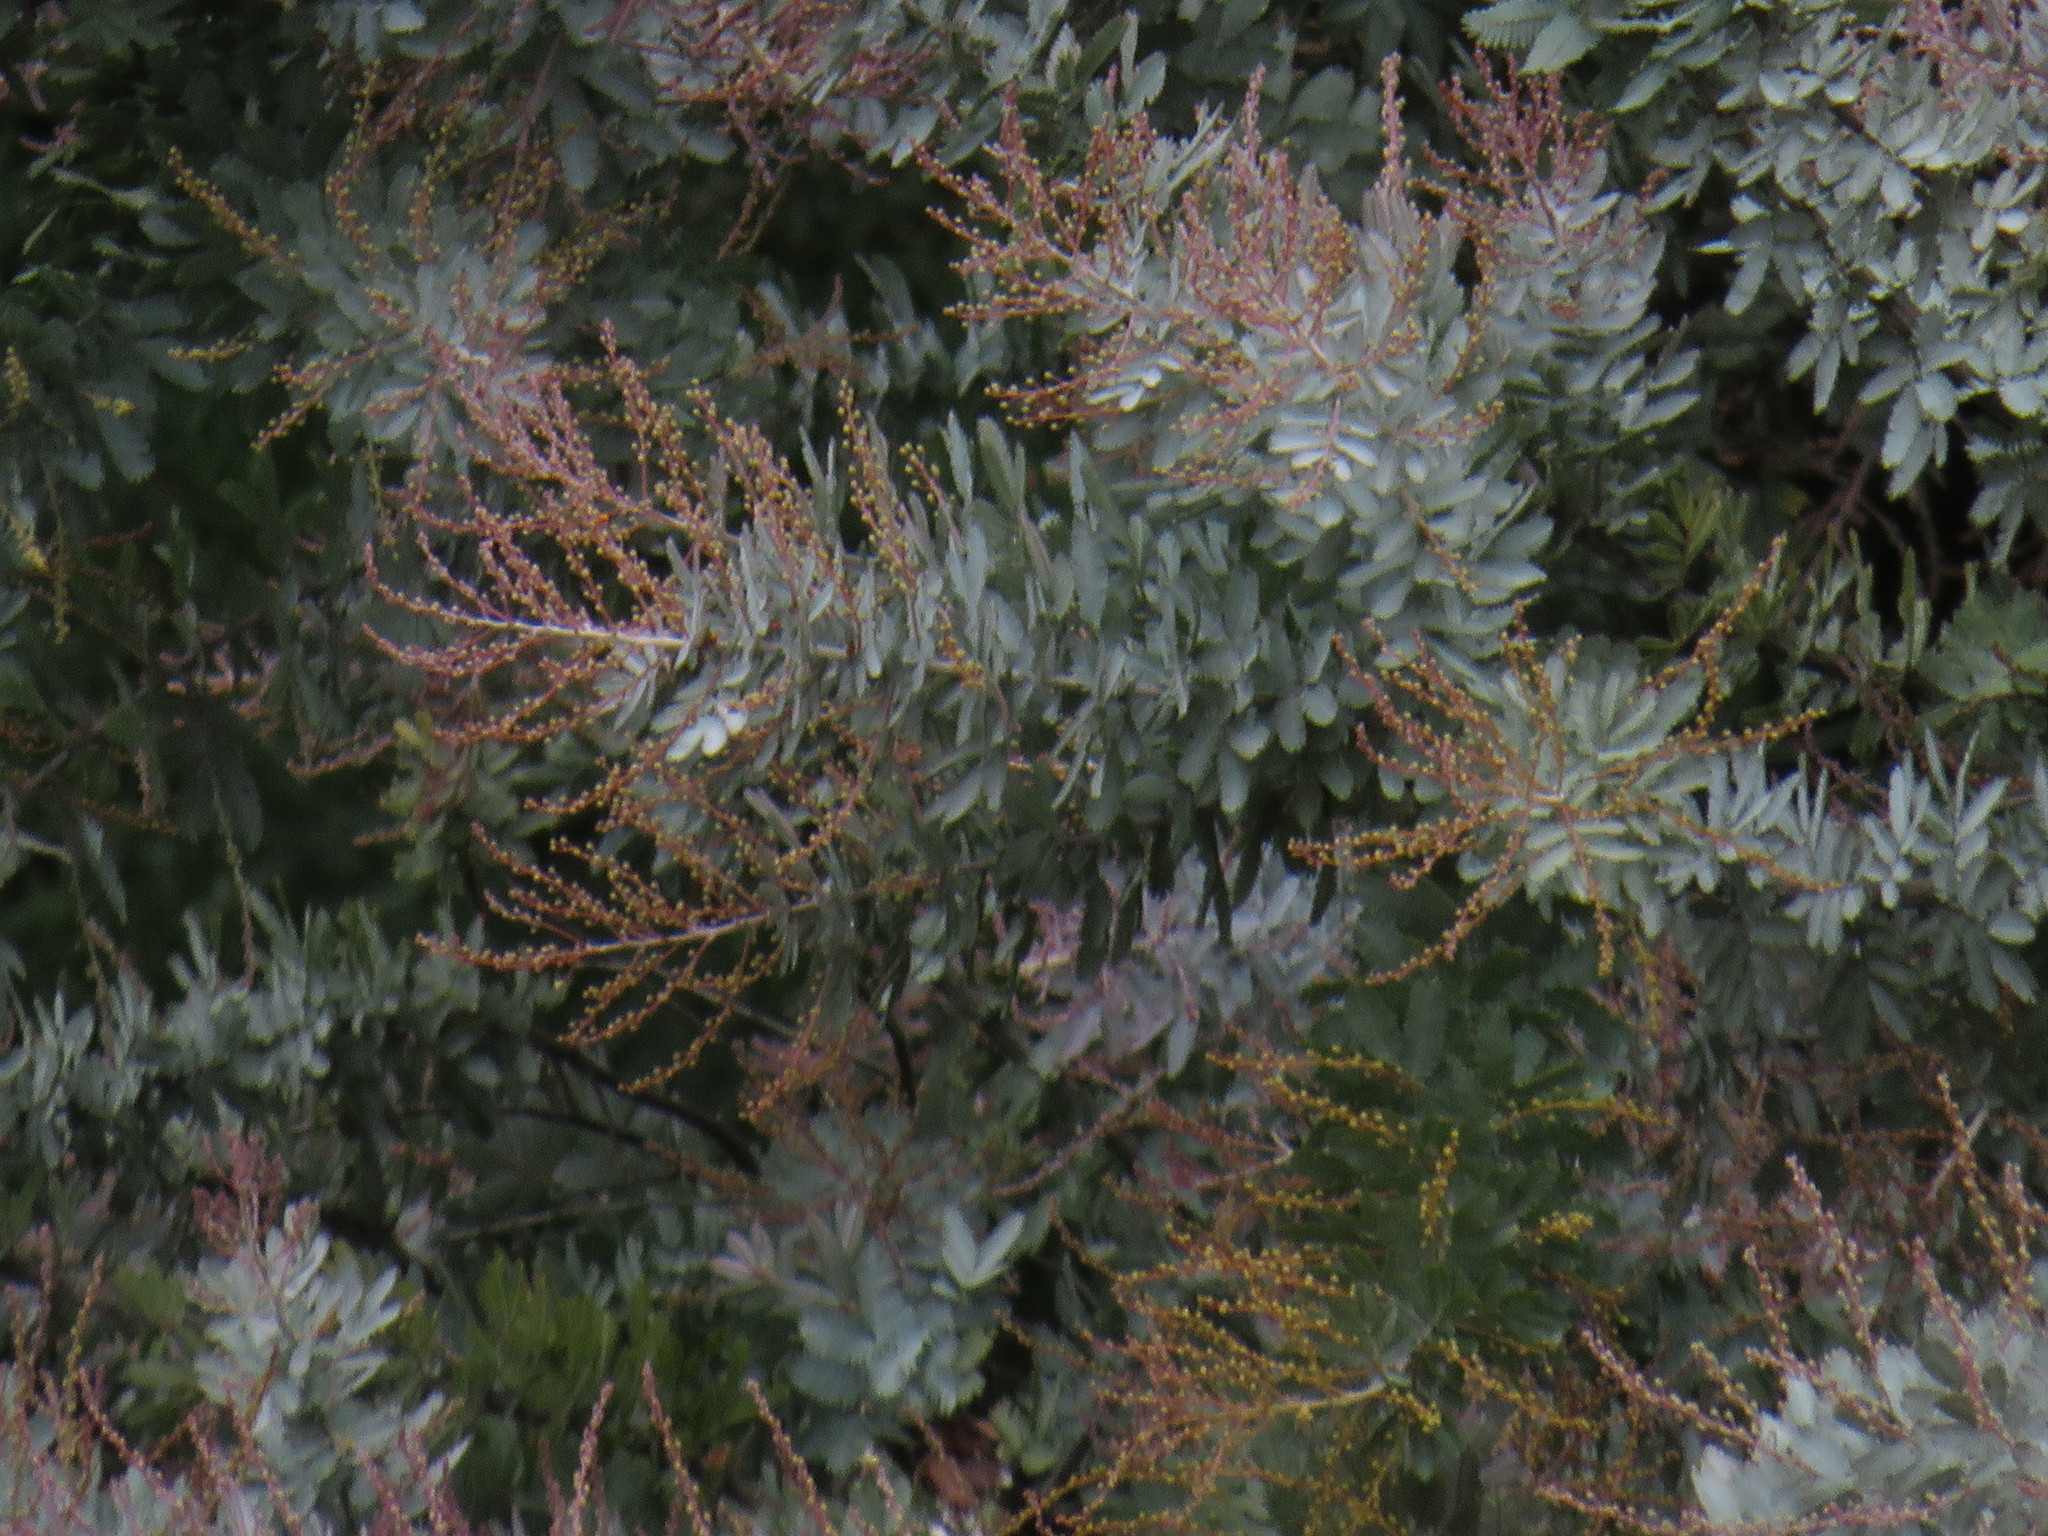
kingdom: Plantae
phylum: Tracheophyta
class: Magnoliopsida
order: Fabales
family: Fabaceae
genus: Acacia
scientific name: Acacia baileyana
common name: Cootamundra wattle
